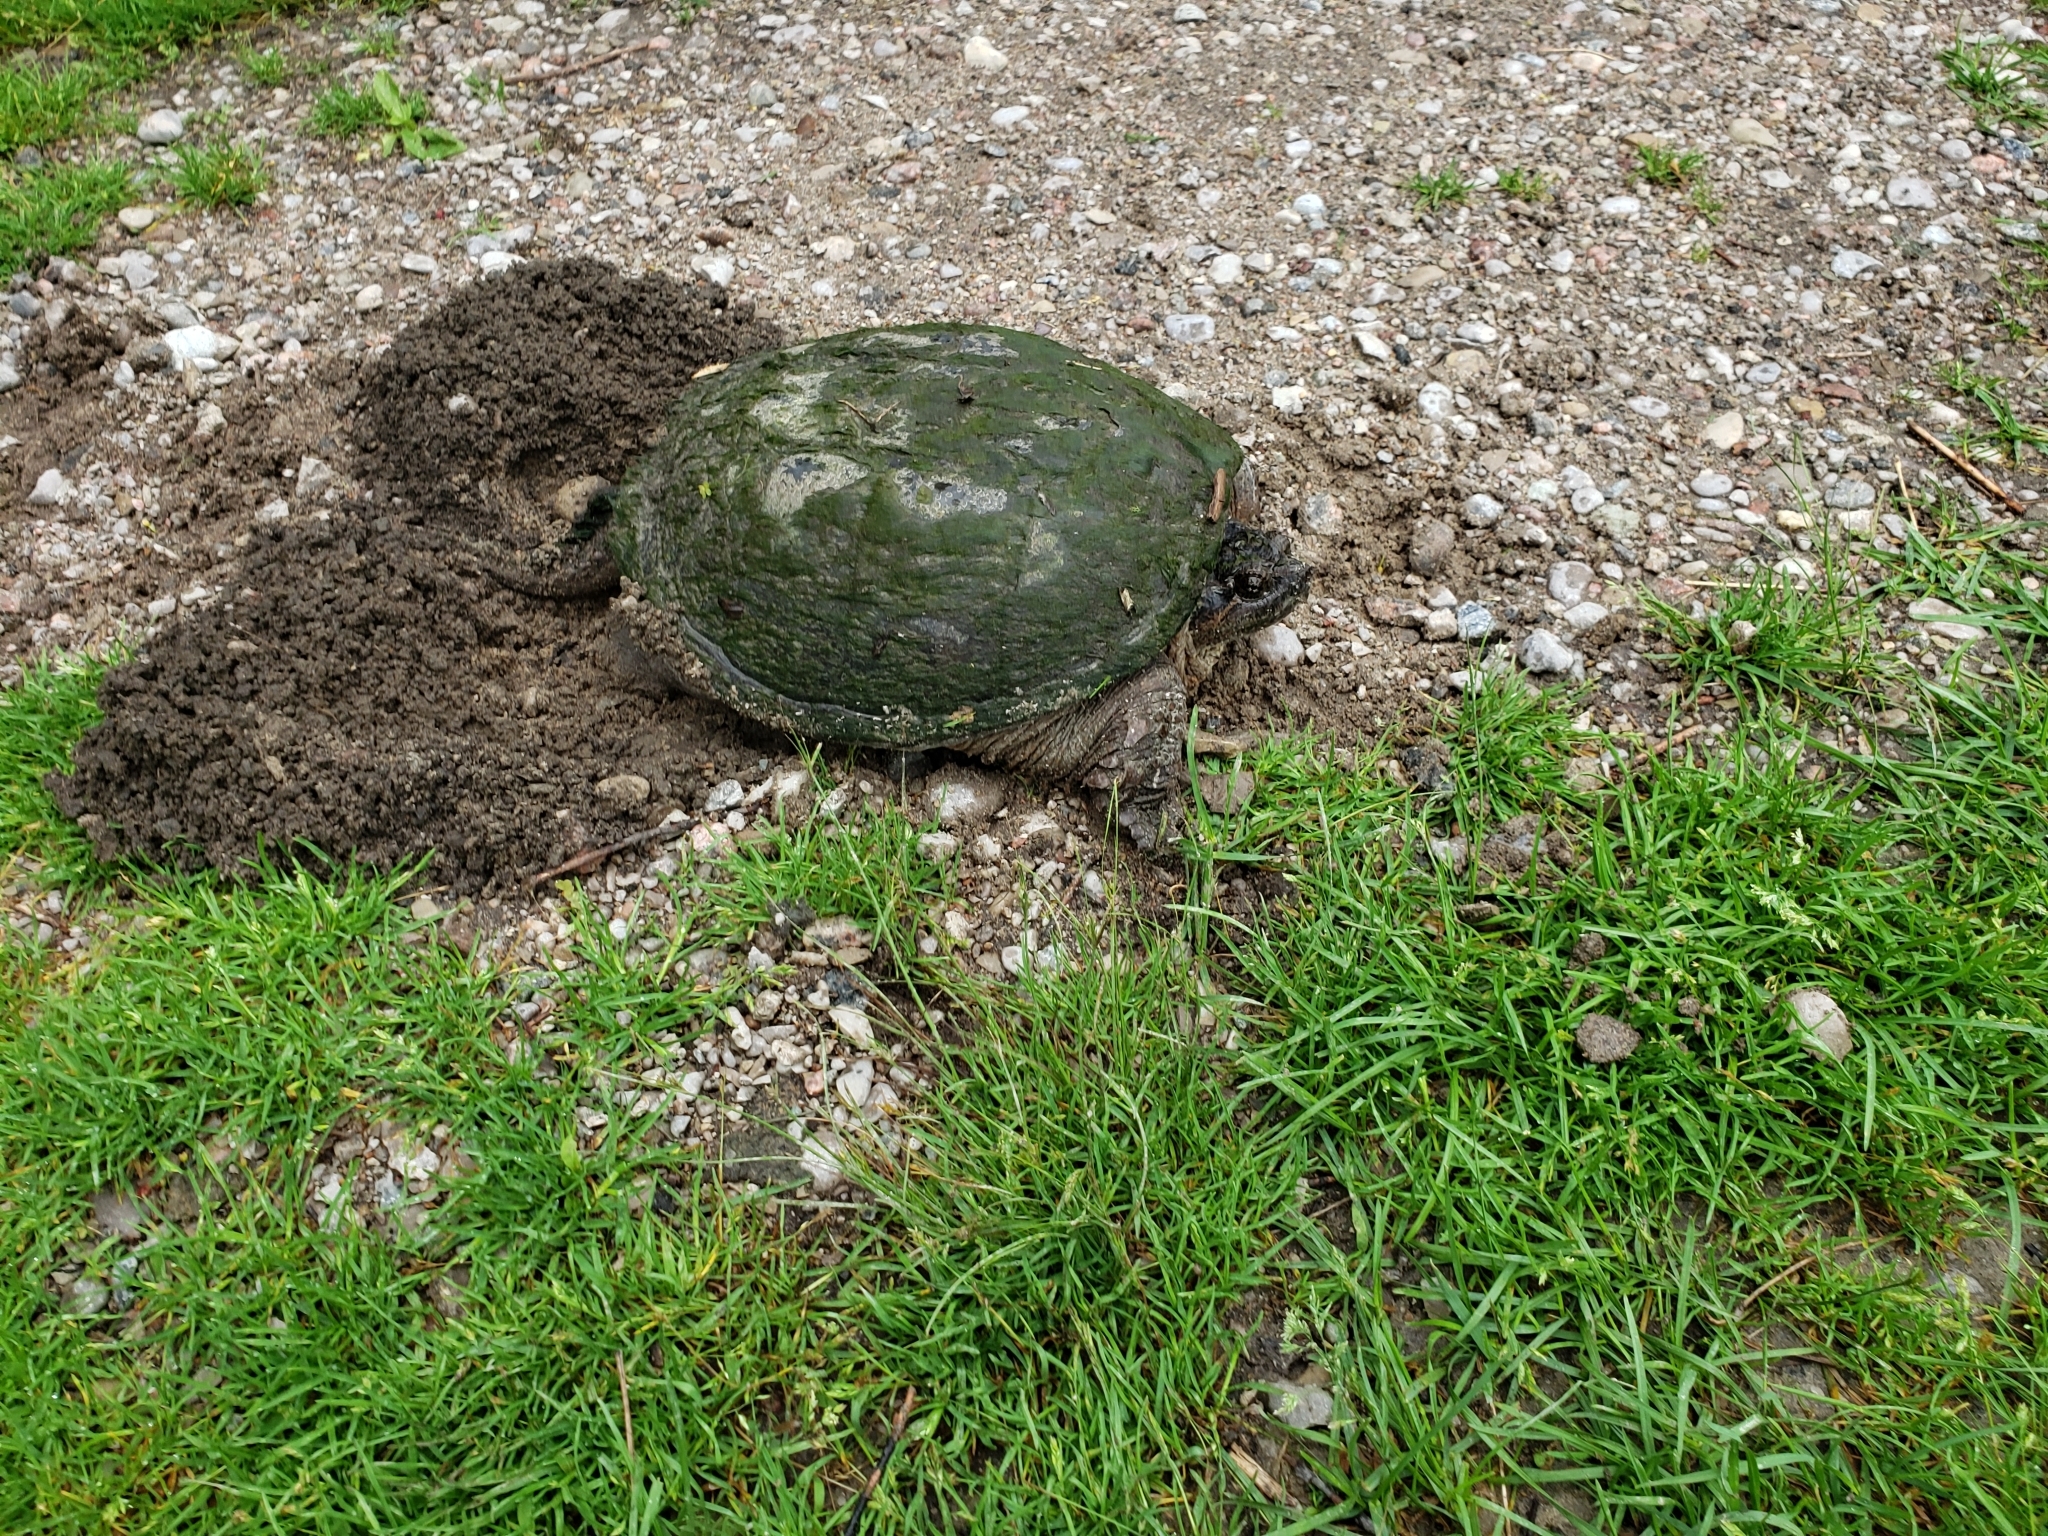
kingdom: Animalia
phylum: Chordata
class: Testudines
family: Chelydridae
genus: Chelydra
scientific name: Chelydra serpentina
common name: Common snapping turtle
